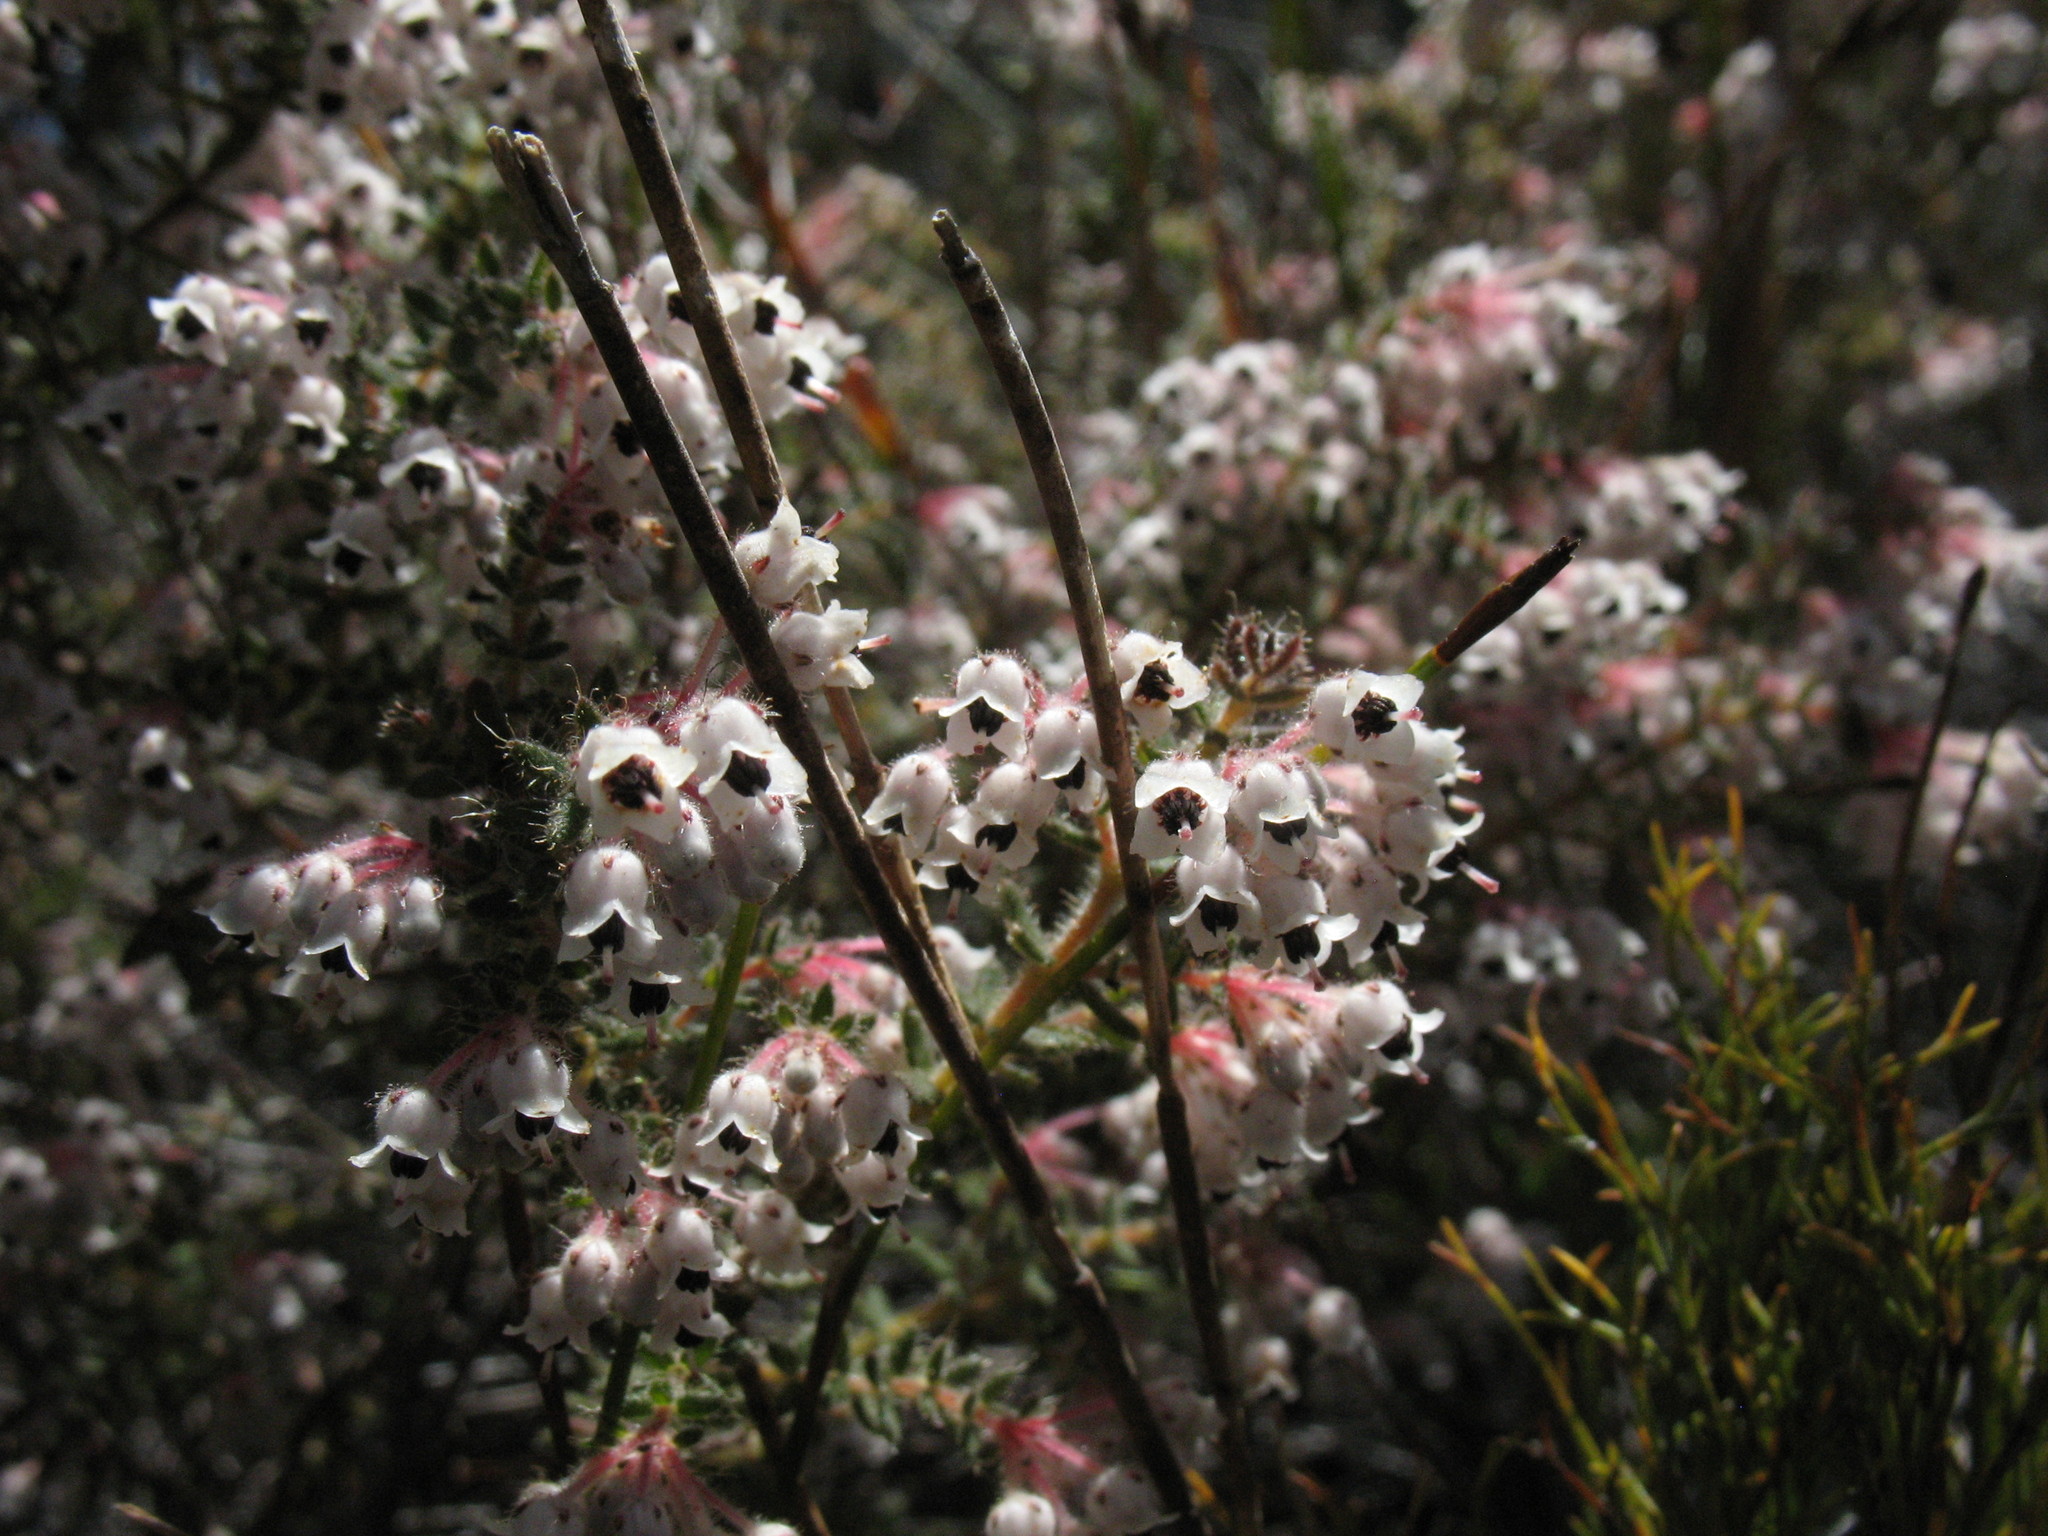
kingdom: Plantae
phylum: Tracheophyta
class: Magnoliopsida
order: Ericales
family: Ericaceae
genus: Erica
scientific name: Erica perlata
